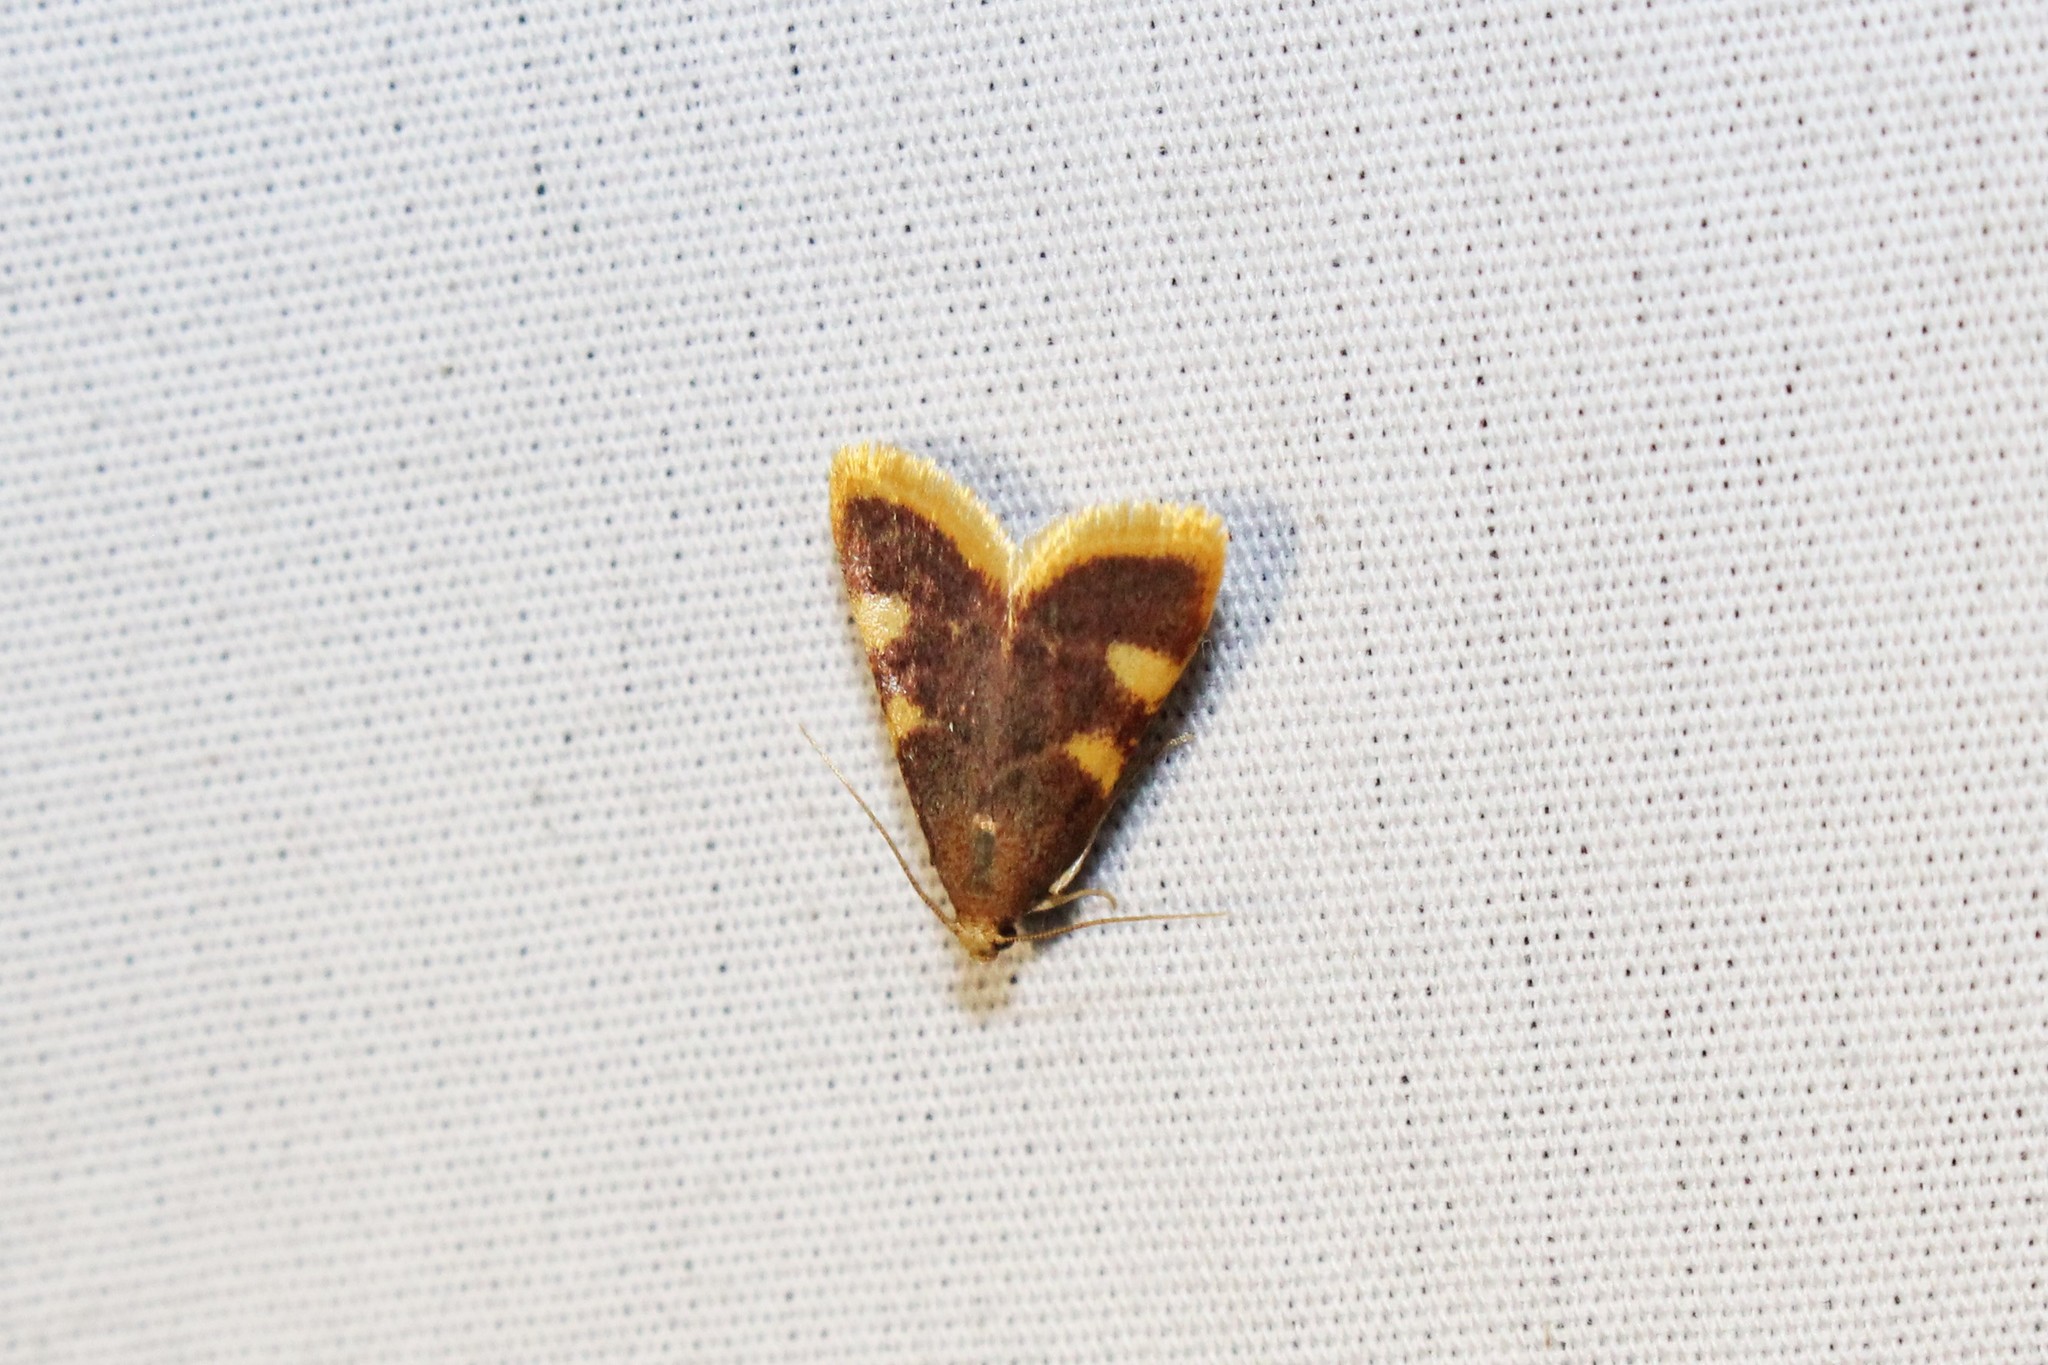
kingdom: Animalia
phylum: Arthropoda
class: Insecta
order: Lepidoptera
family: Pyralidae
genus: Hypsopygia
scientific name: Hypsopygia costalis
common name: Gold triangle
